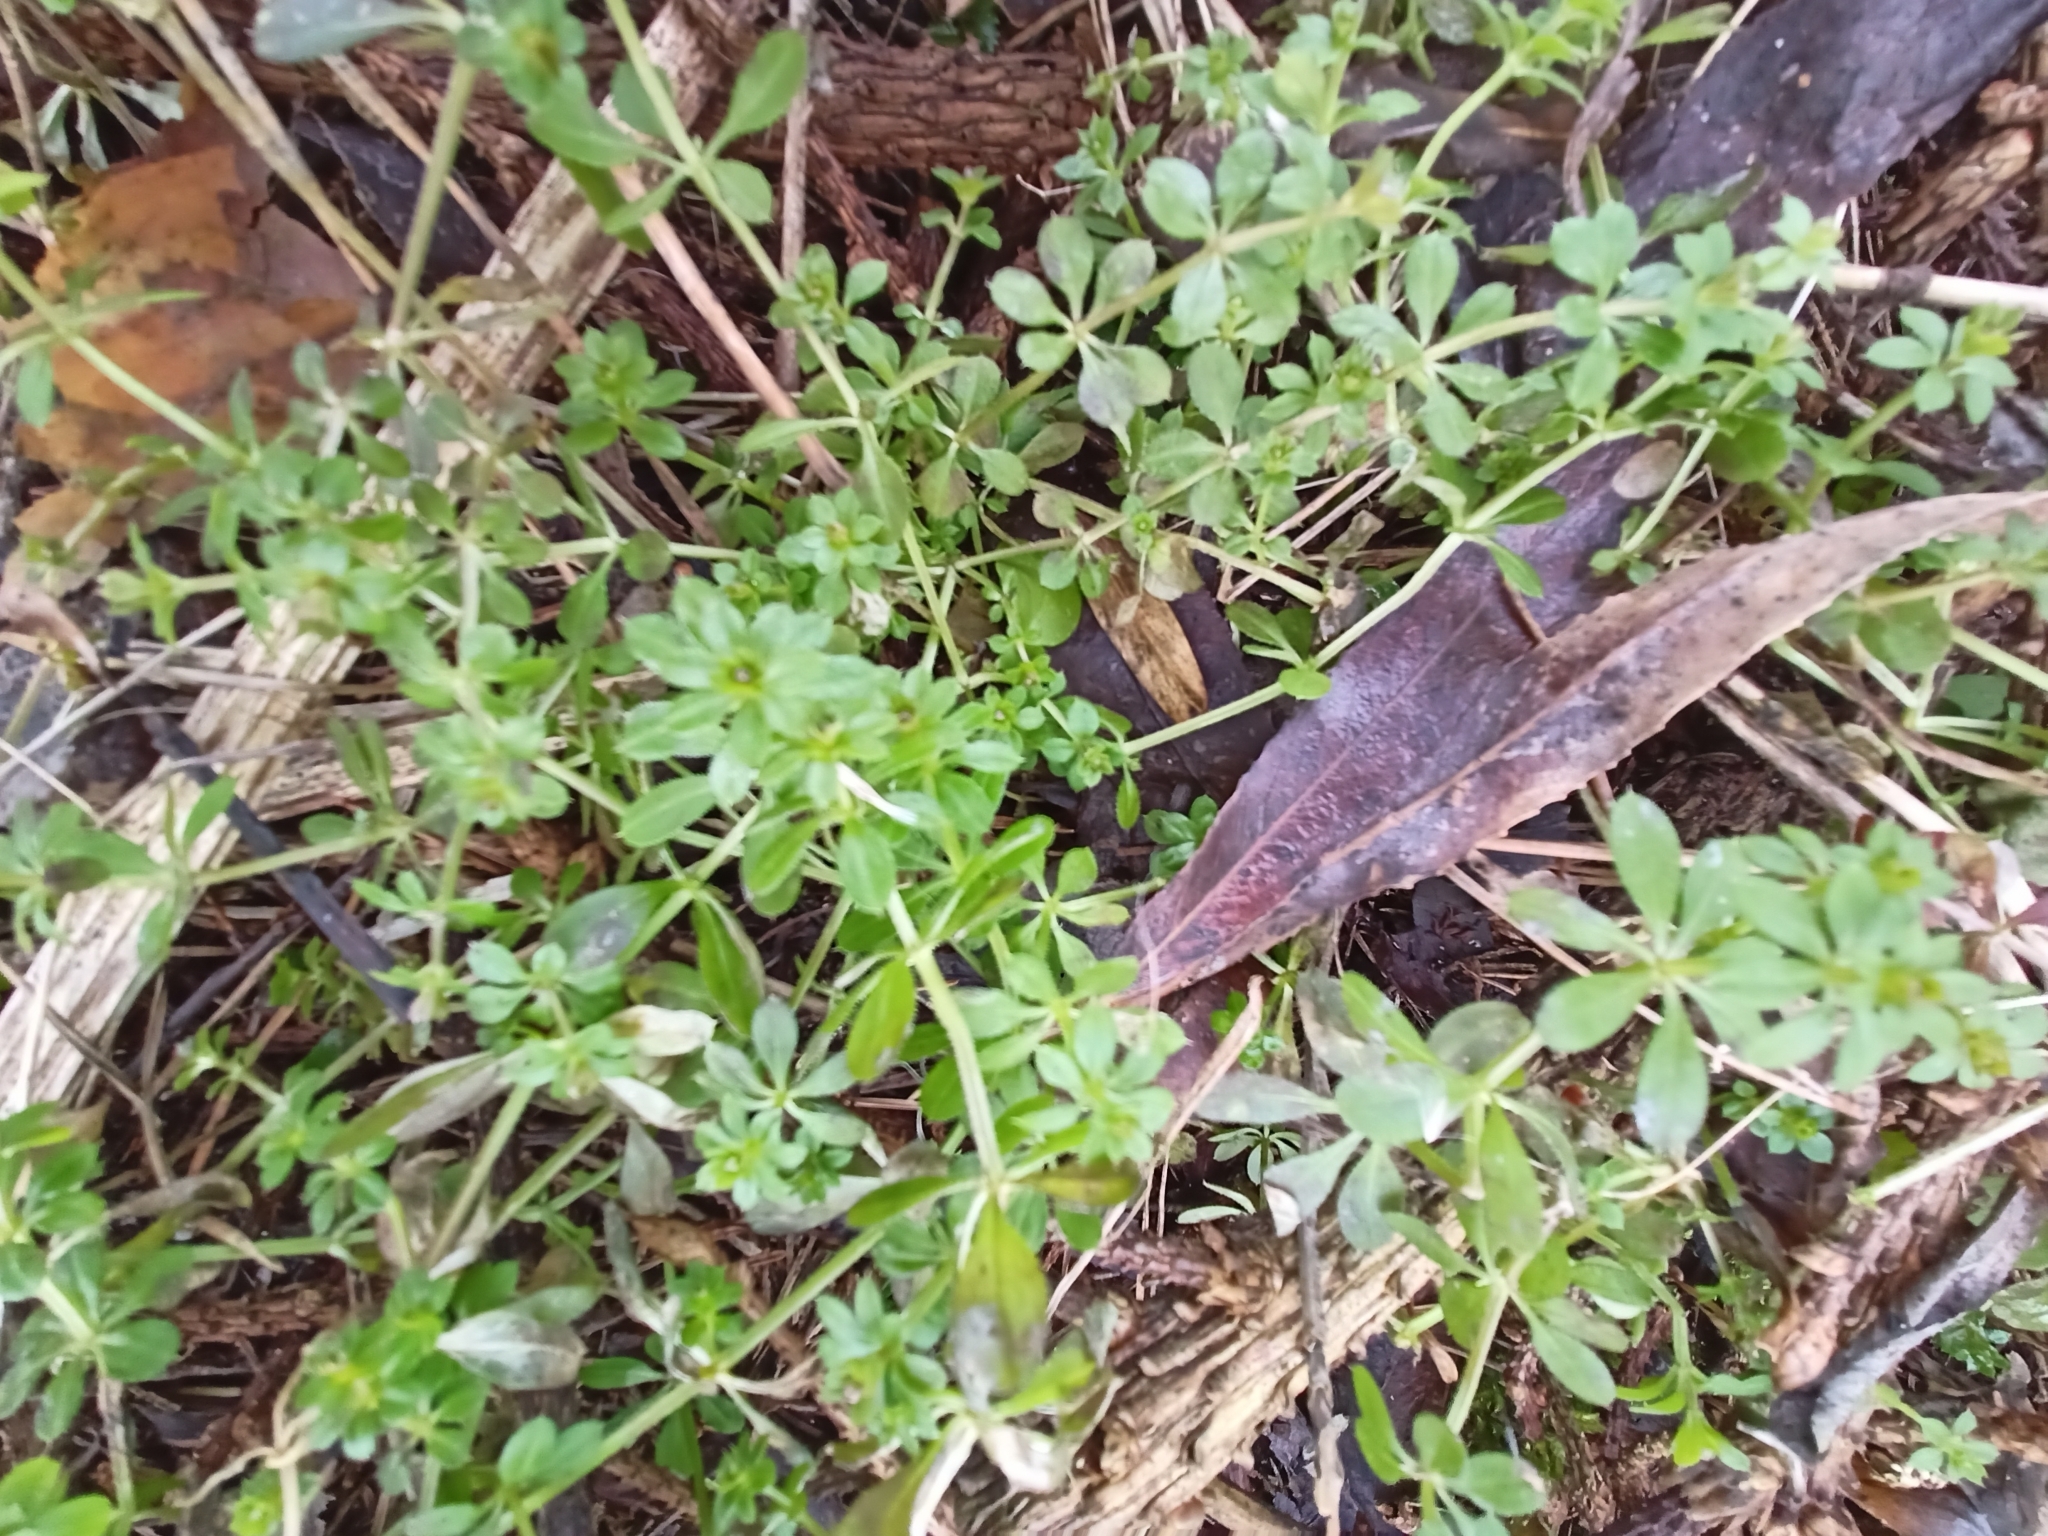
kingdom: Plantae
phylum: Tracheophyta
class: Magnoliopsida
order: Gentianales
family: Rubiaceae
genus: Galium
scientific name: Galium aparine
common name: Cleavers
